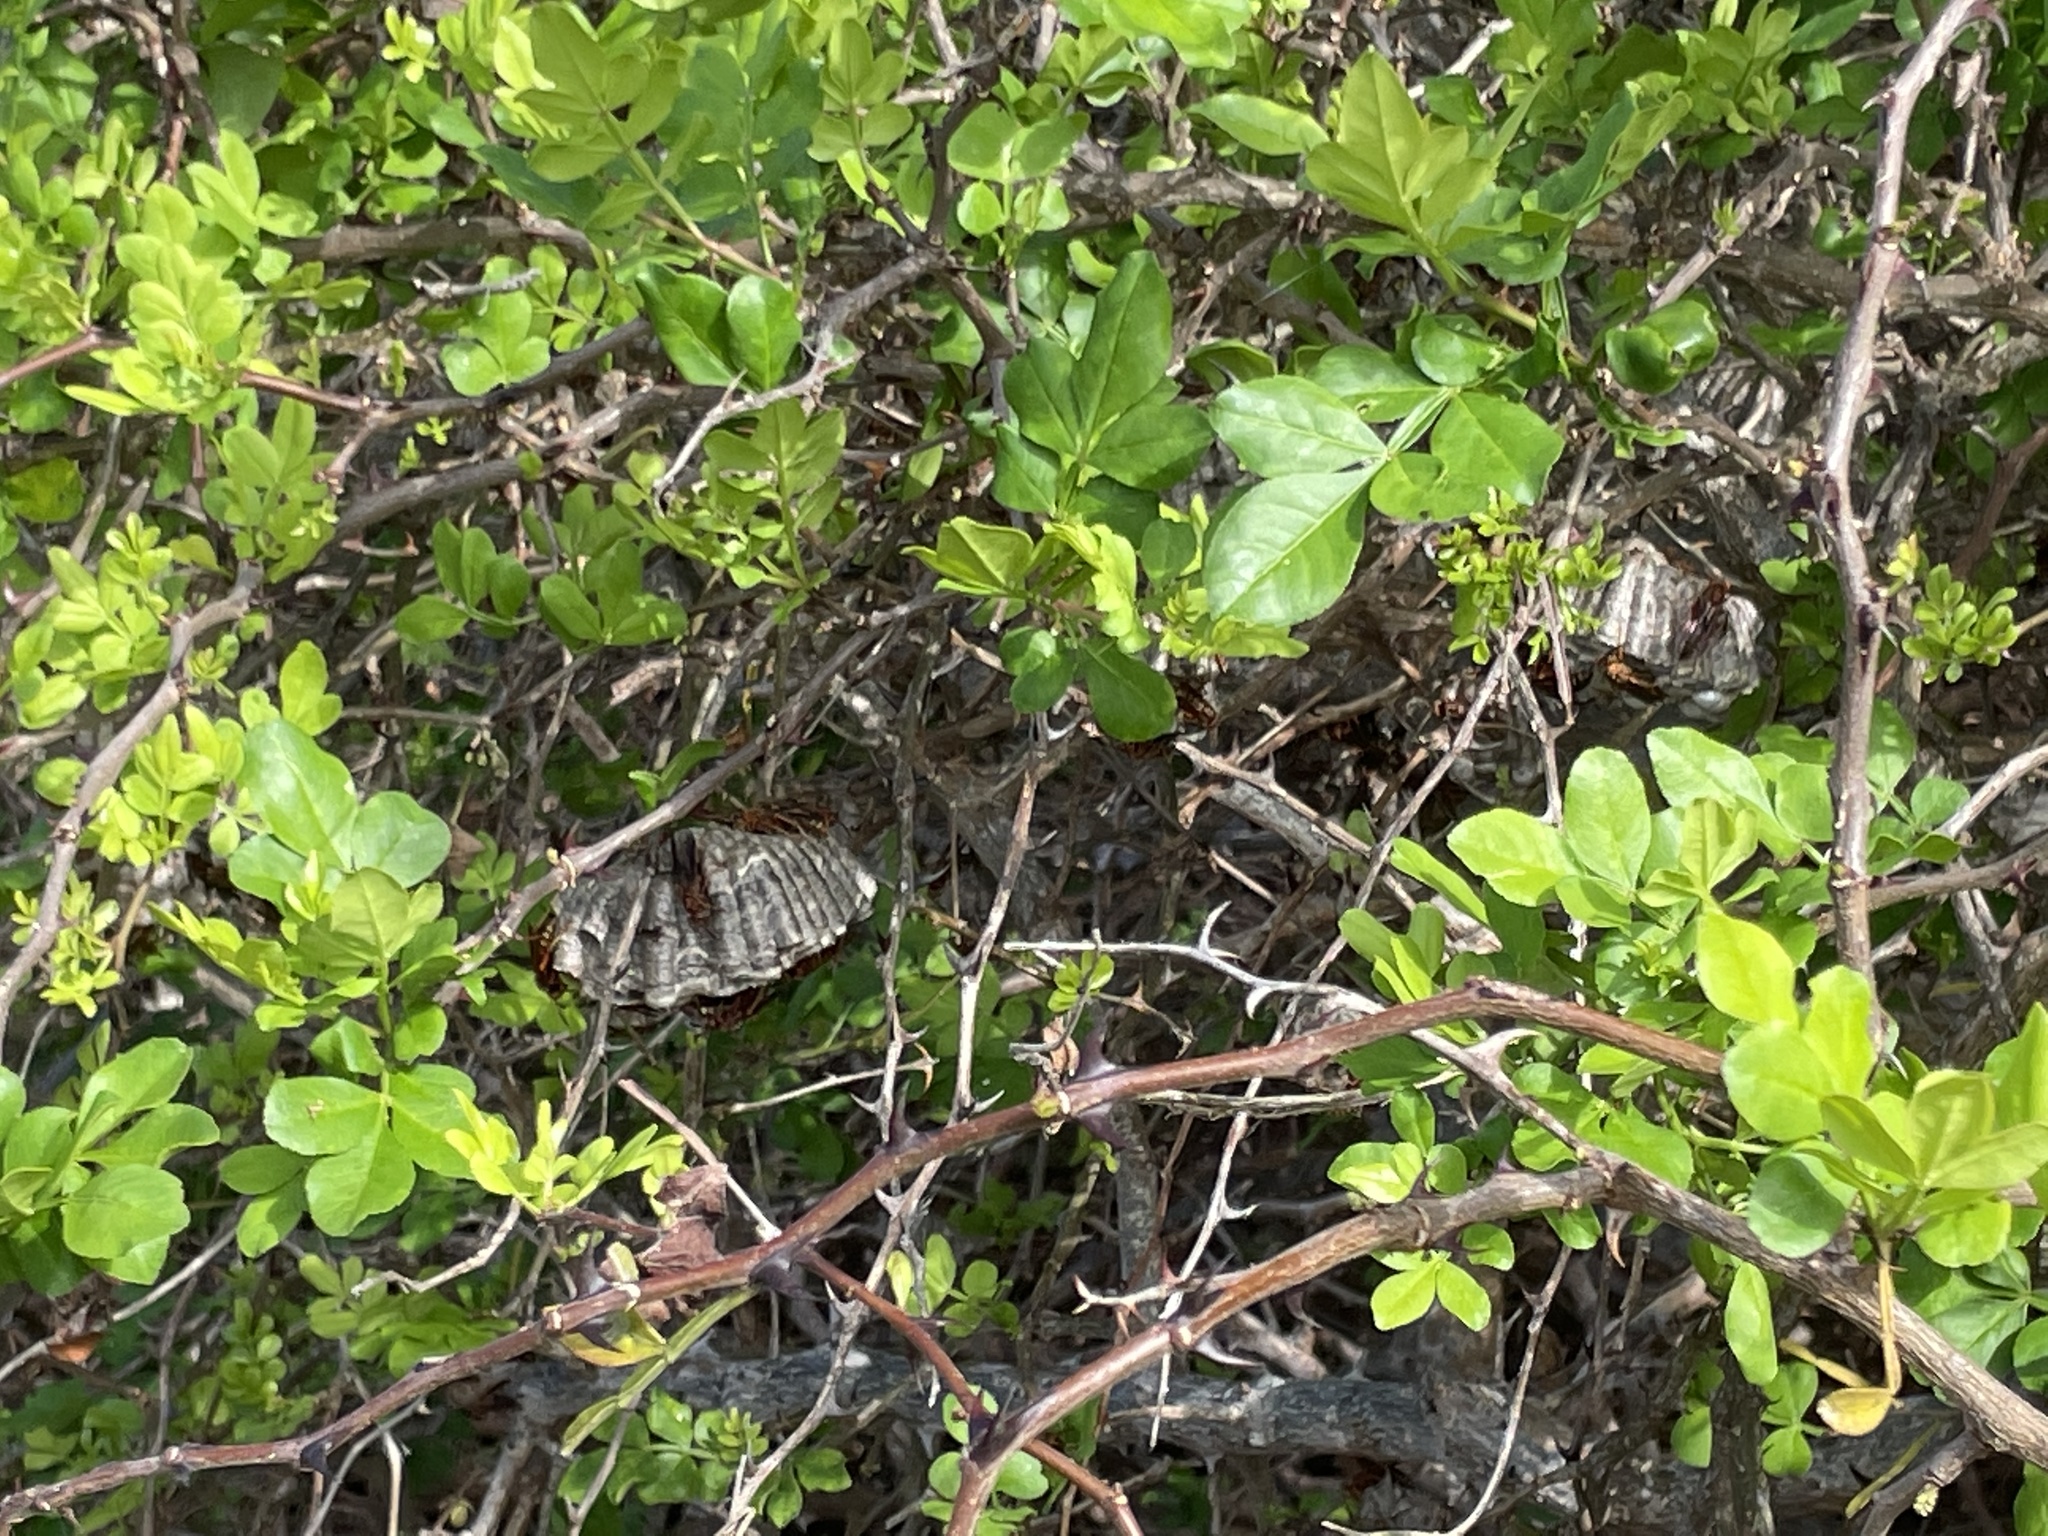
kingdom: Plantae
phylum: Tracheophyta
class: Magnoliopsida
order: Sapindales
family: Rutaceae
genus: Zanthoxylum
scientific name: Zanthoxylum fagara
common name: Lime prickly-ash
